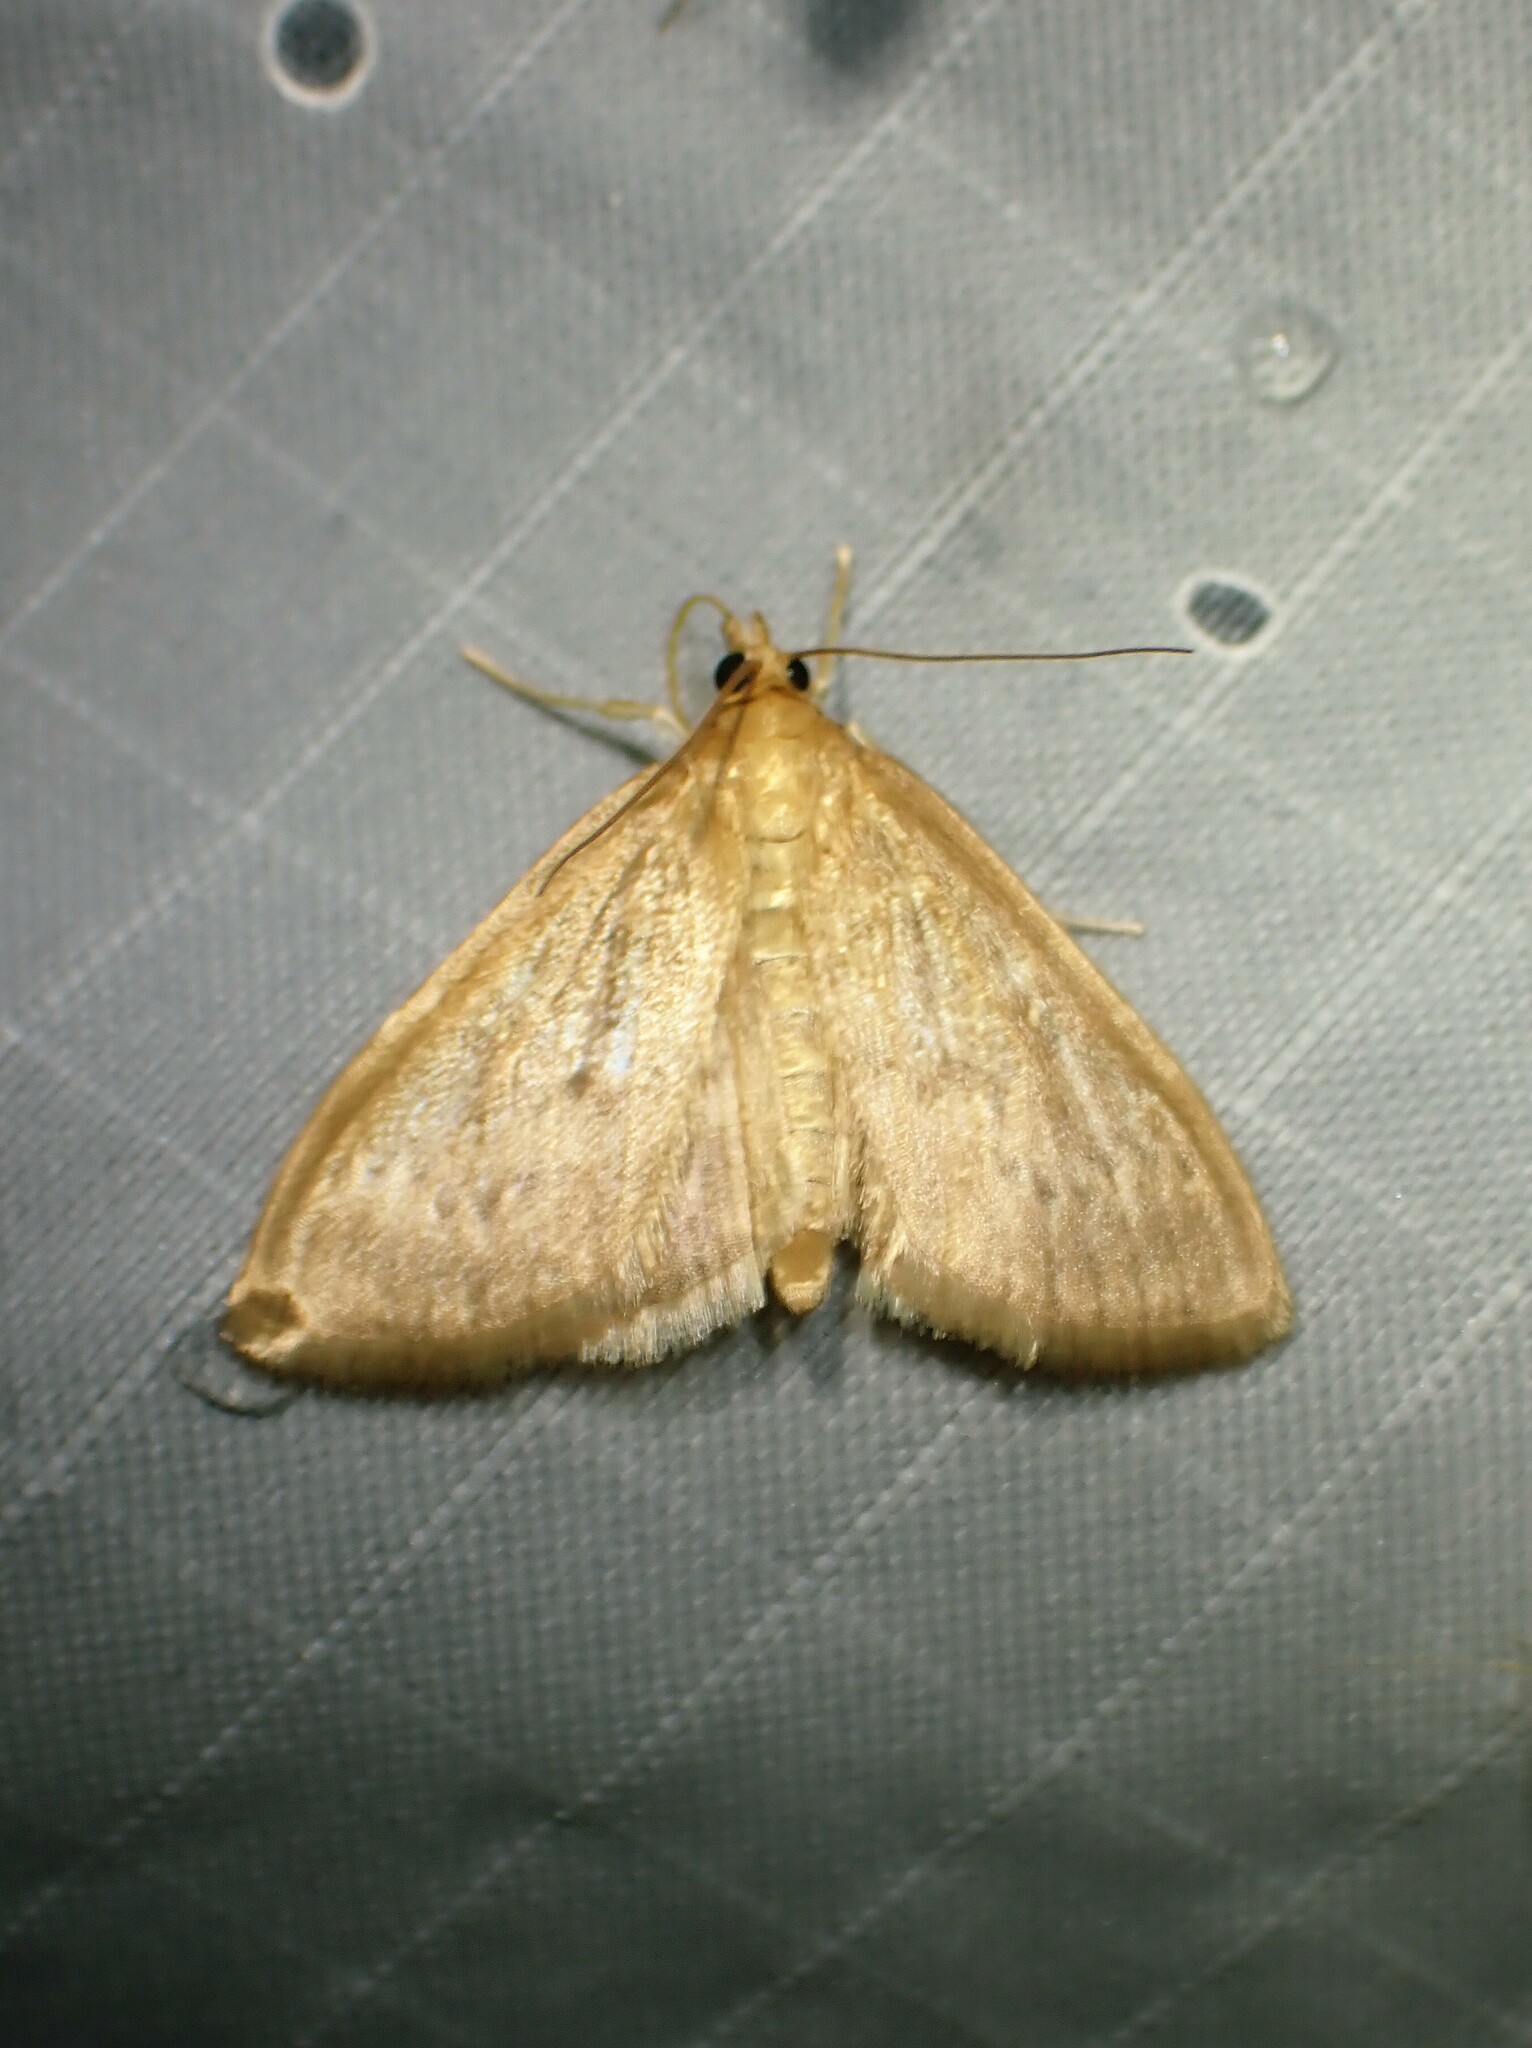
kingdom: Animalia
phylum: Arthropoda
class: Insecta
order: Lepidoptera
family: Crambidae
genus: Anania
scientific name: Anania Framinghamia helvalis
